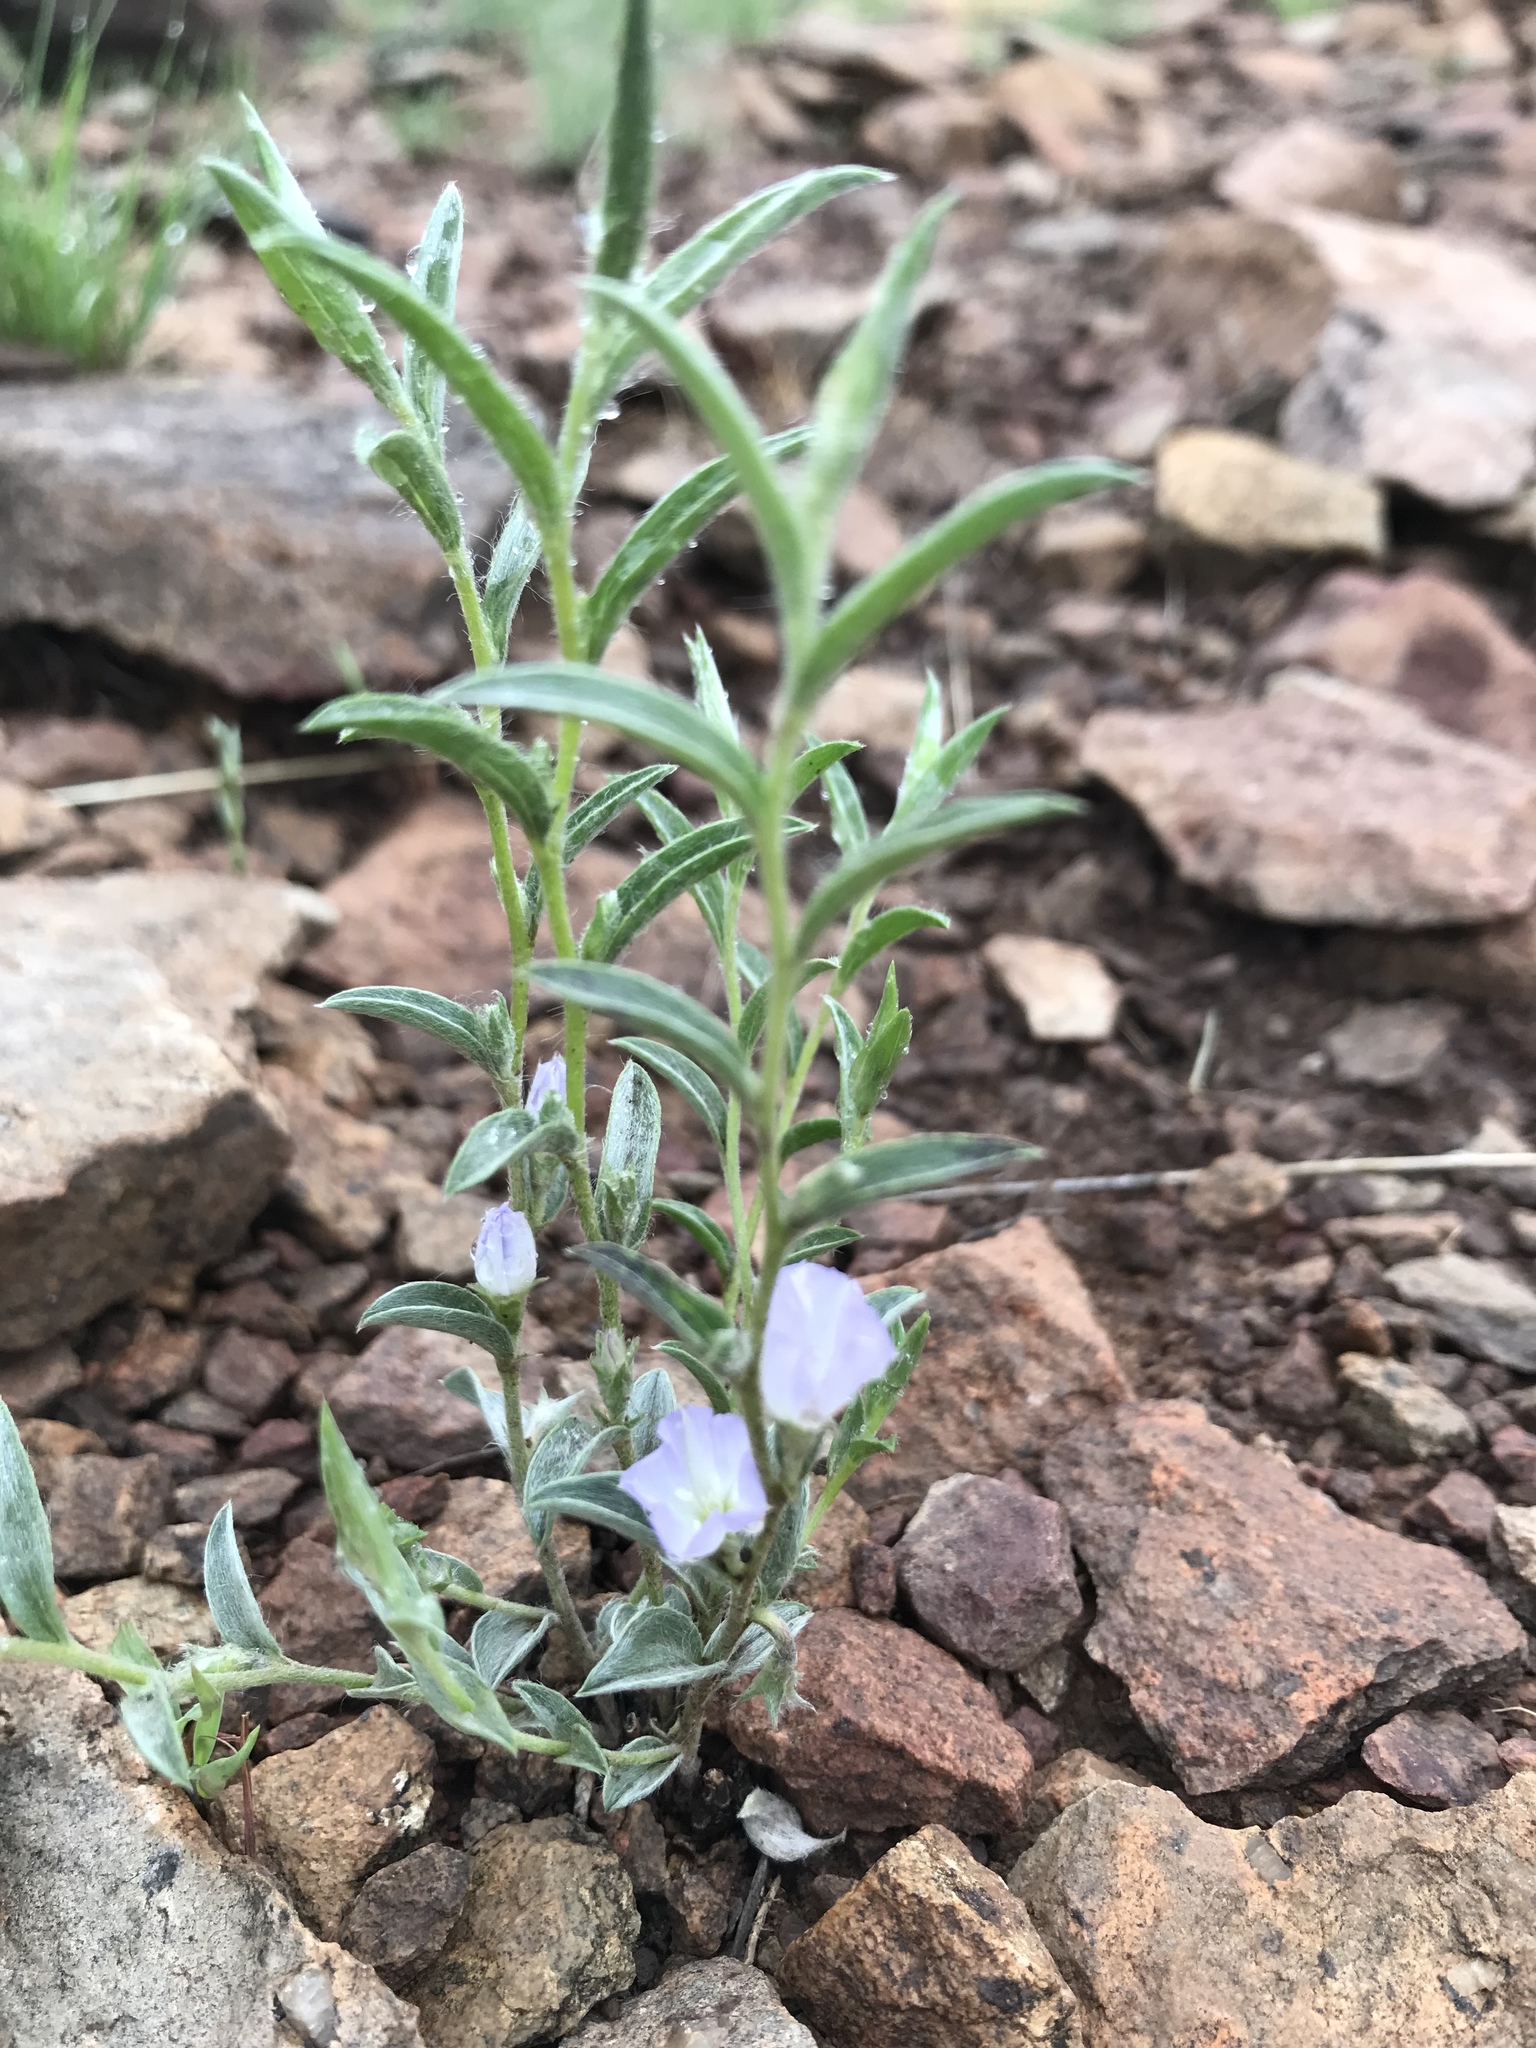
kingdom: Plantae
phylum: Tracheophyta
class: Magnoliopsida
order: Solanales
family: Convolvulaceae
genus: Evolvulus
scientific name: Evolvulus nuttallianus
